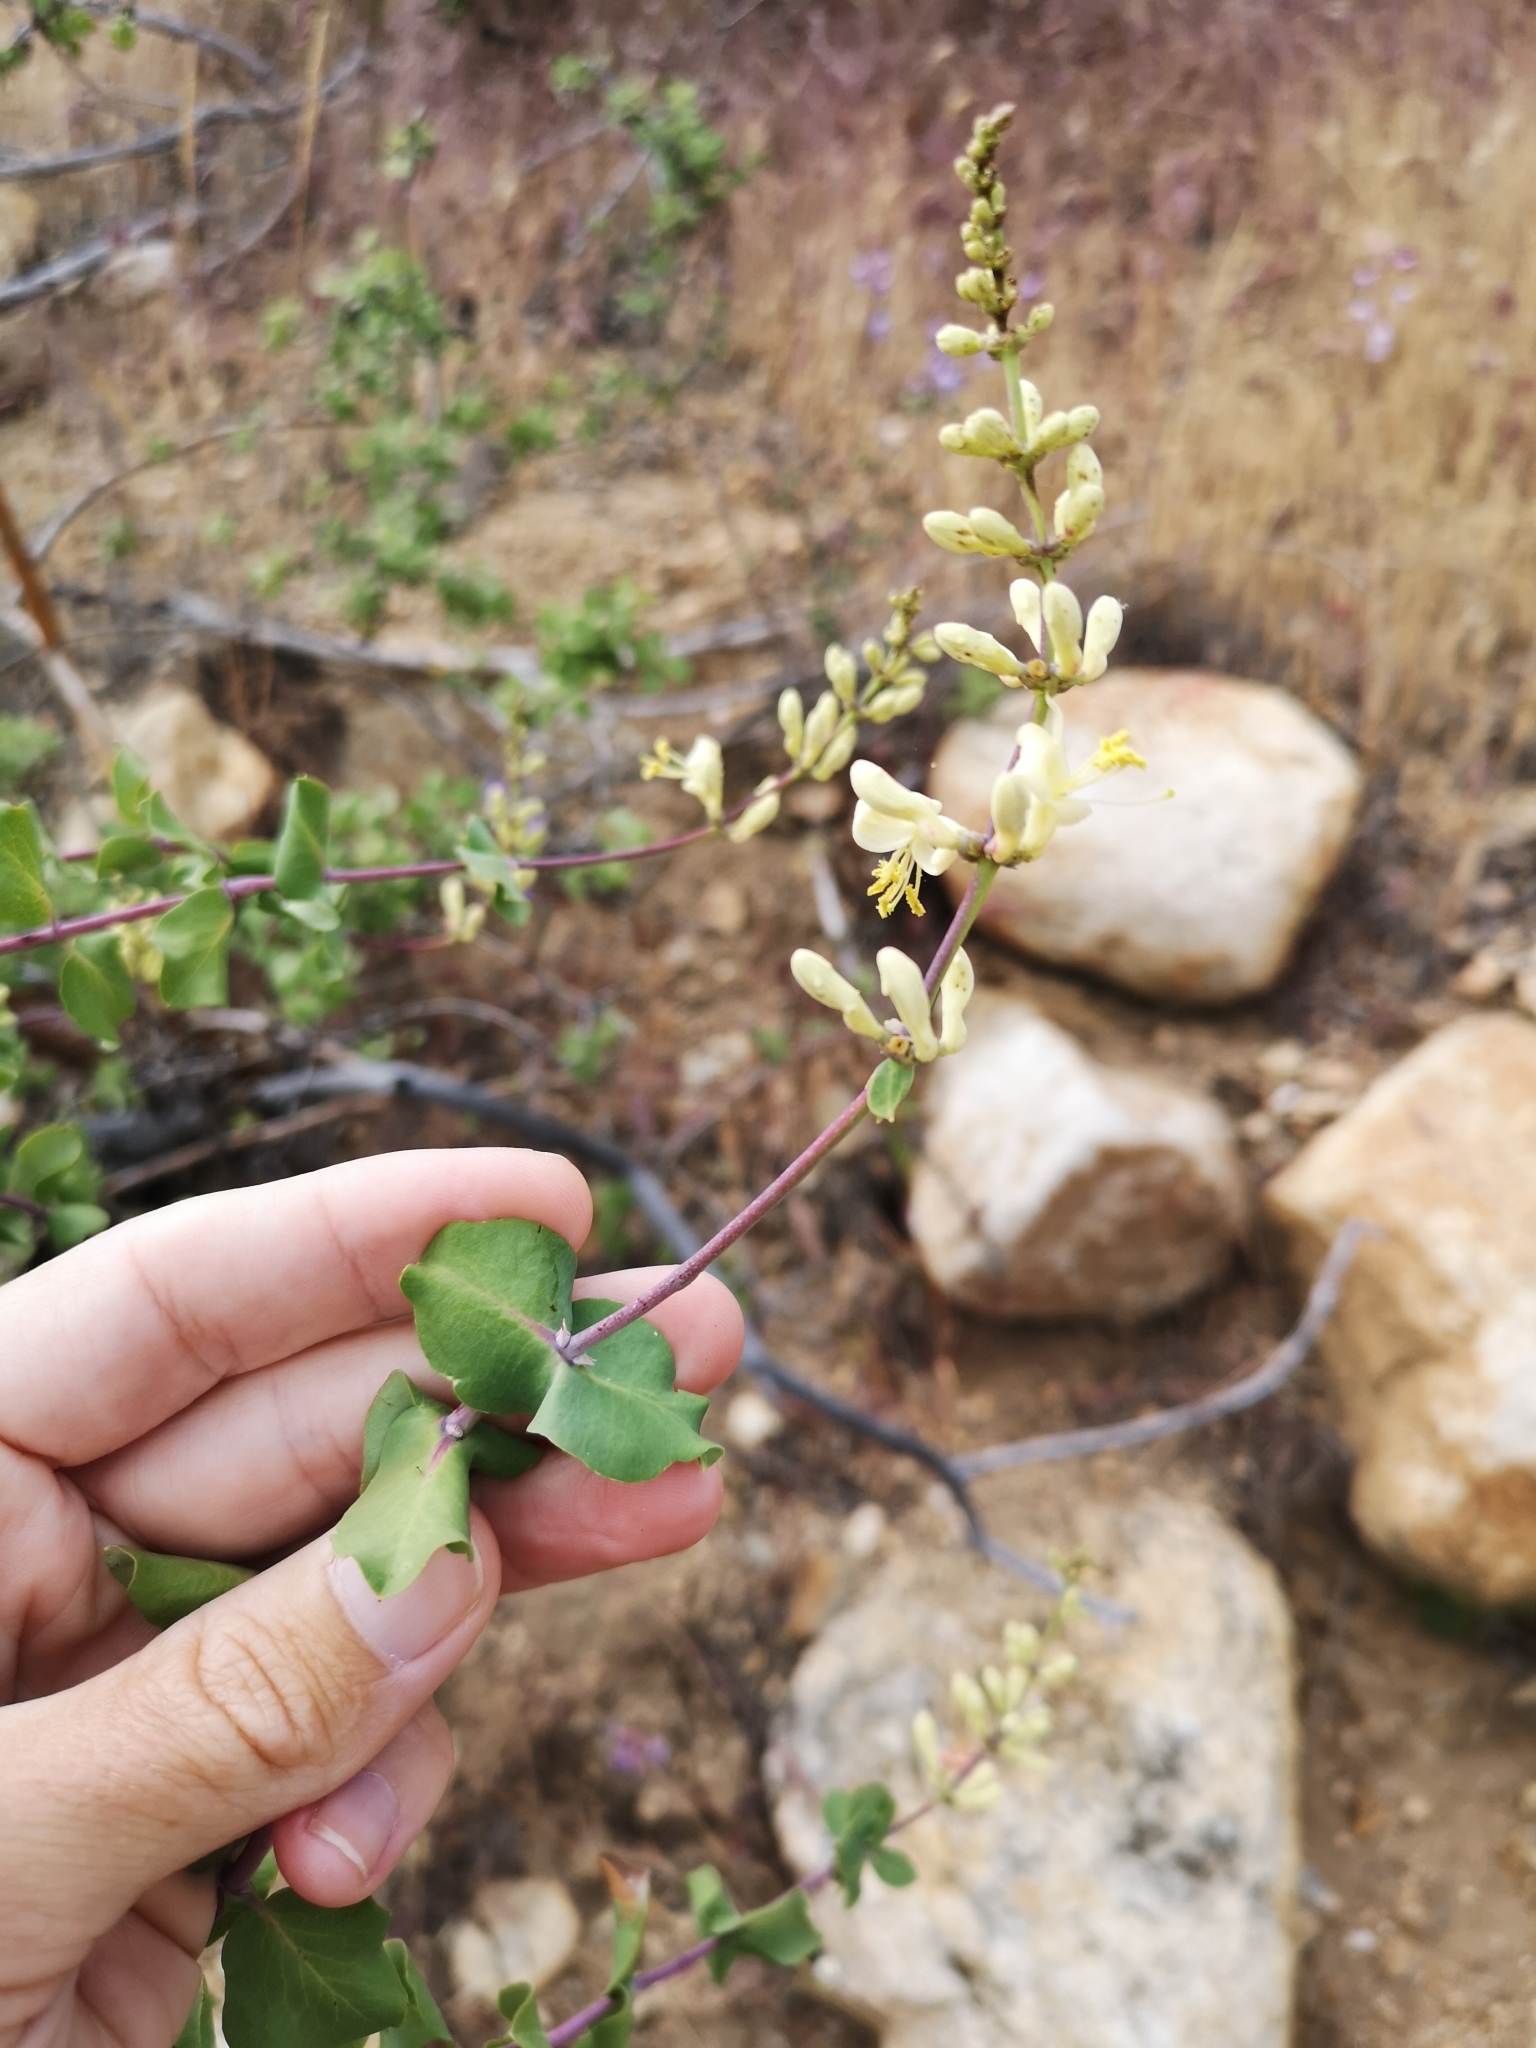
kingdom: Plantae
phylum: Tracheophyta
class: Magnoliopsida
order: Dipsacales
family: Caprifoliaceae
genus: Lonicera
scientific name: Lonicera interrupta
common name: Chaparral honeysuckle
